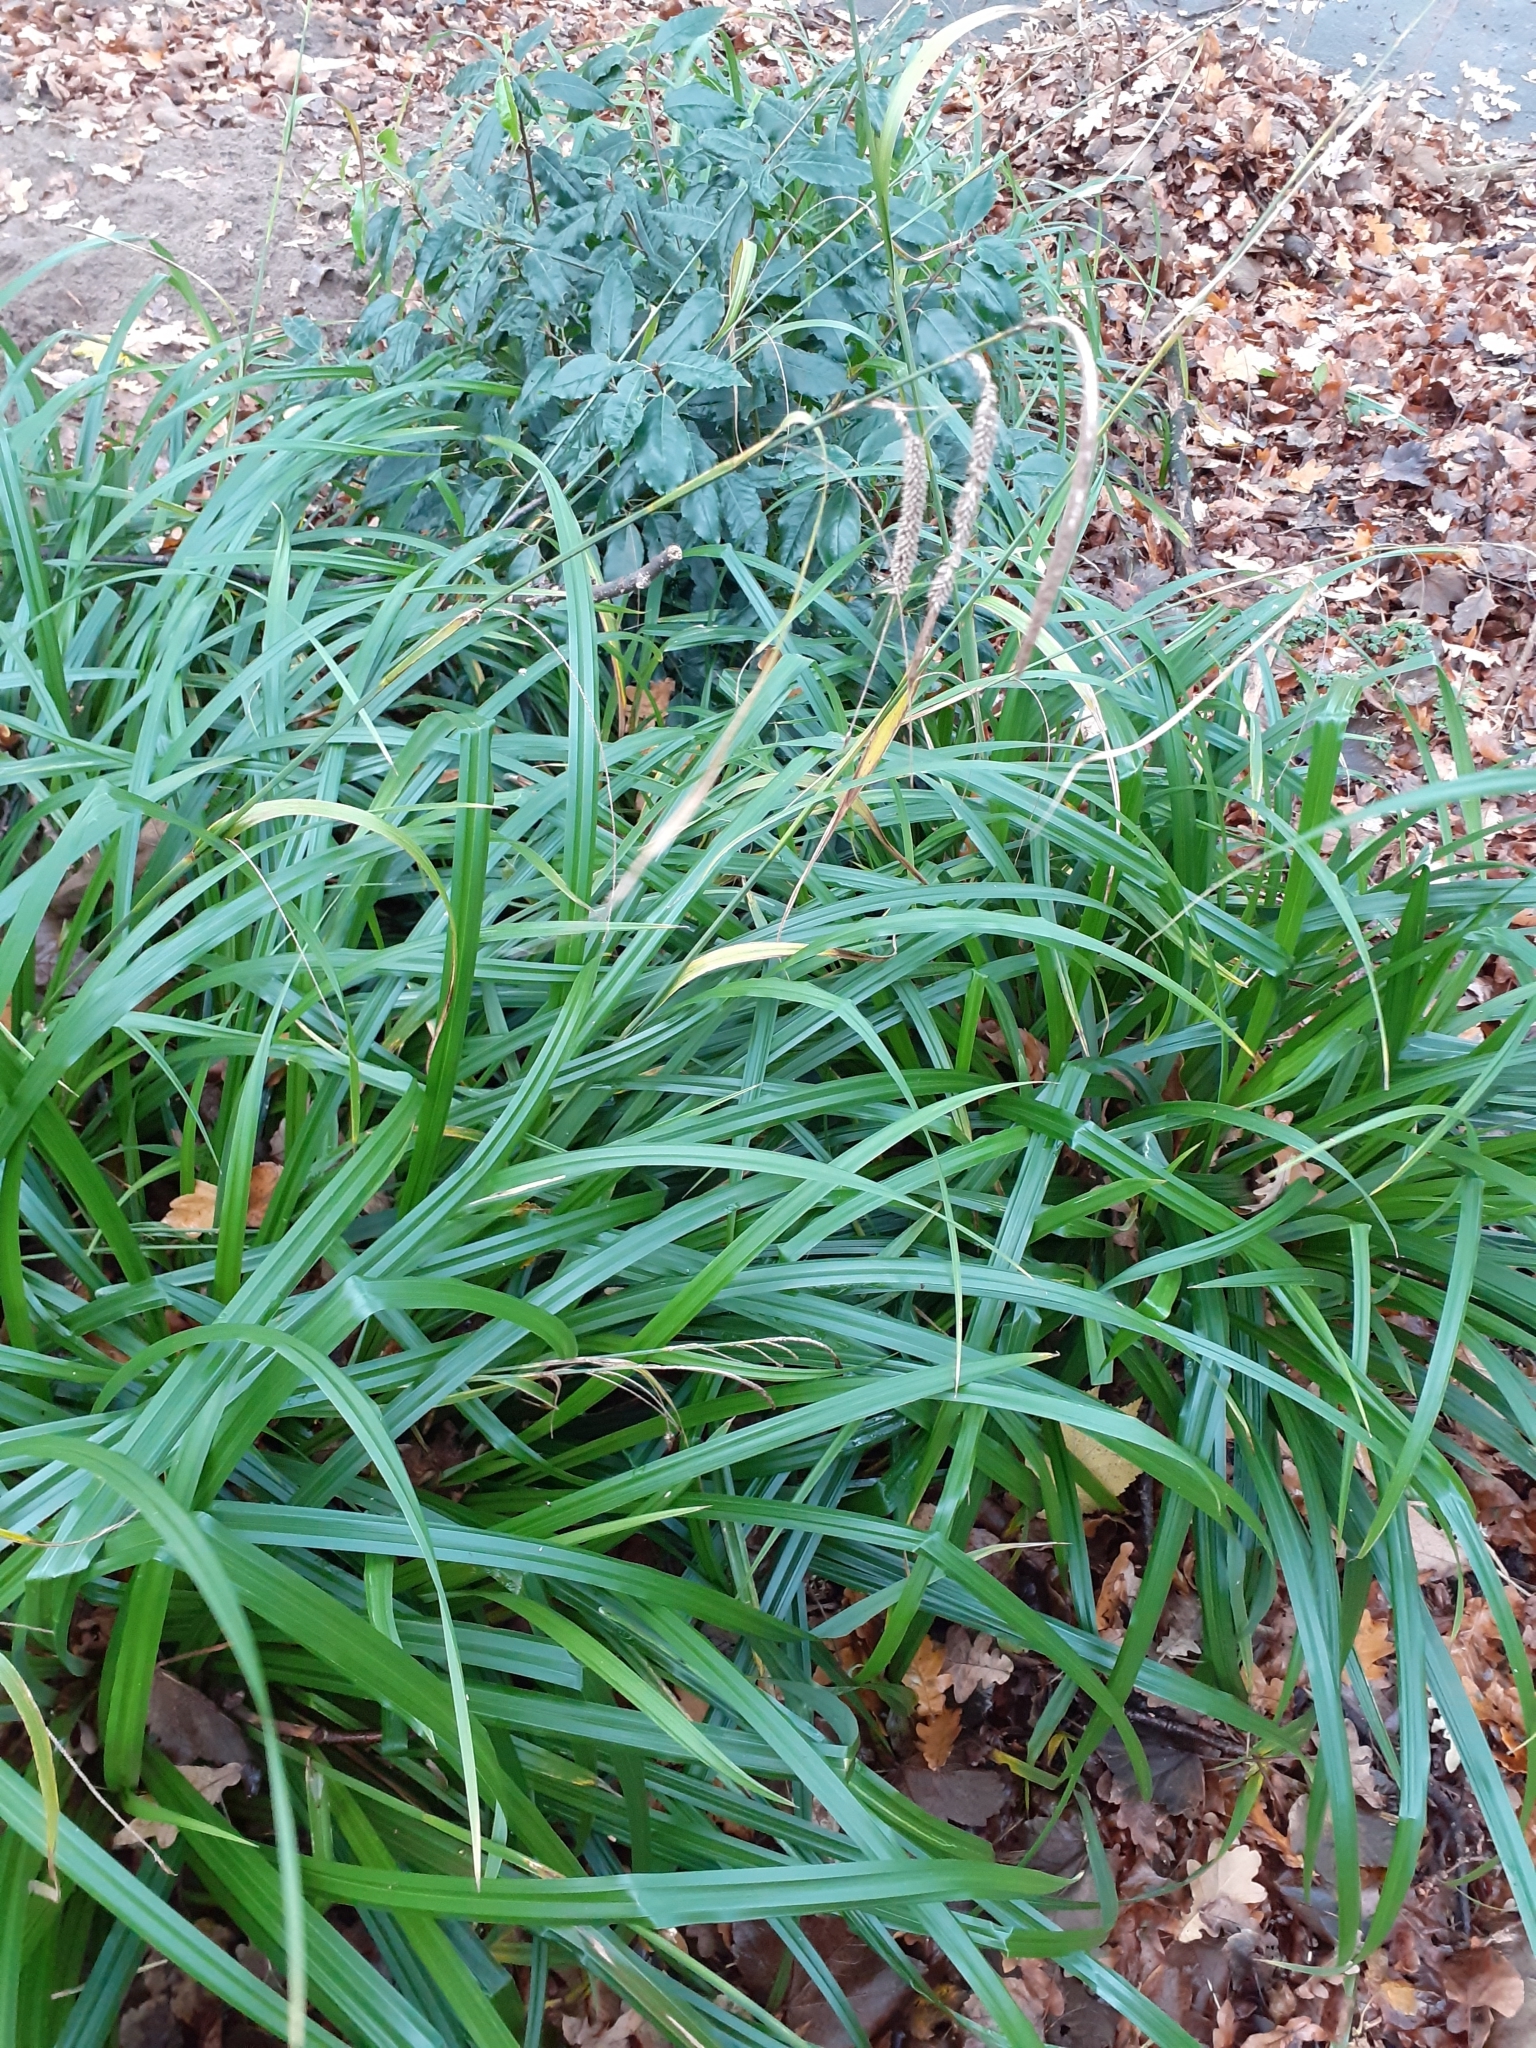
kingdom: Plantae
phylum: Tracheophyta
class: Liliopsida
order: Poales
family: Cyperaceae
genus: Carex
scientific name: Carex pendula
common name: Pendulous sedge
